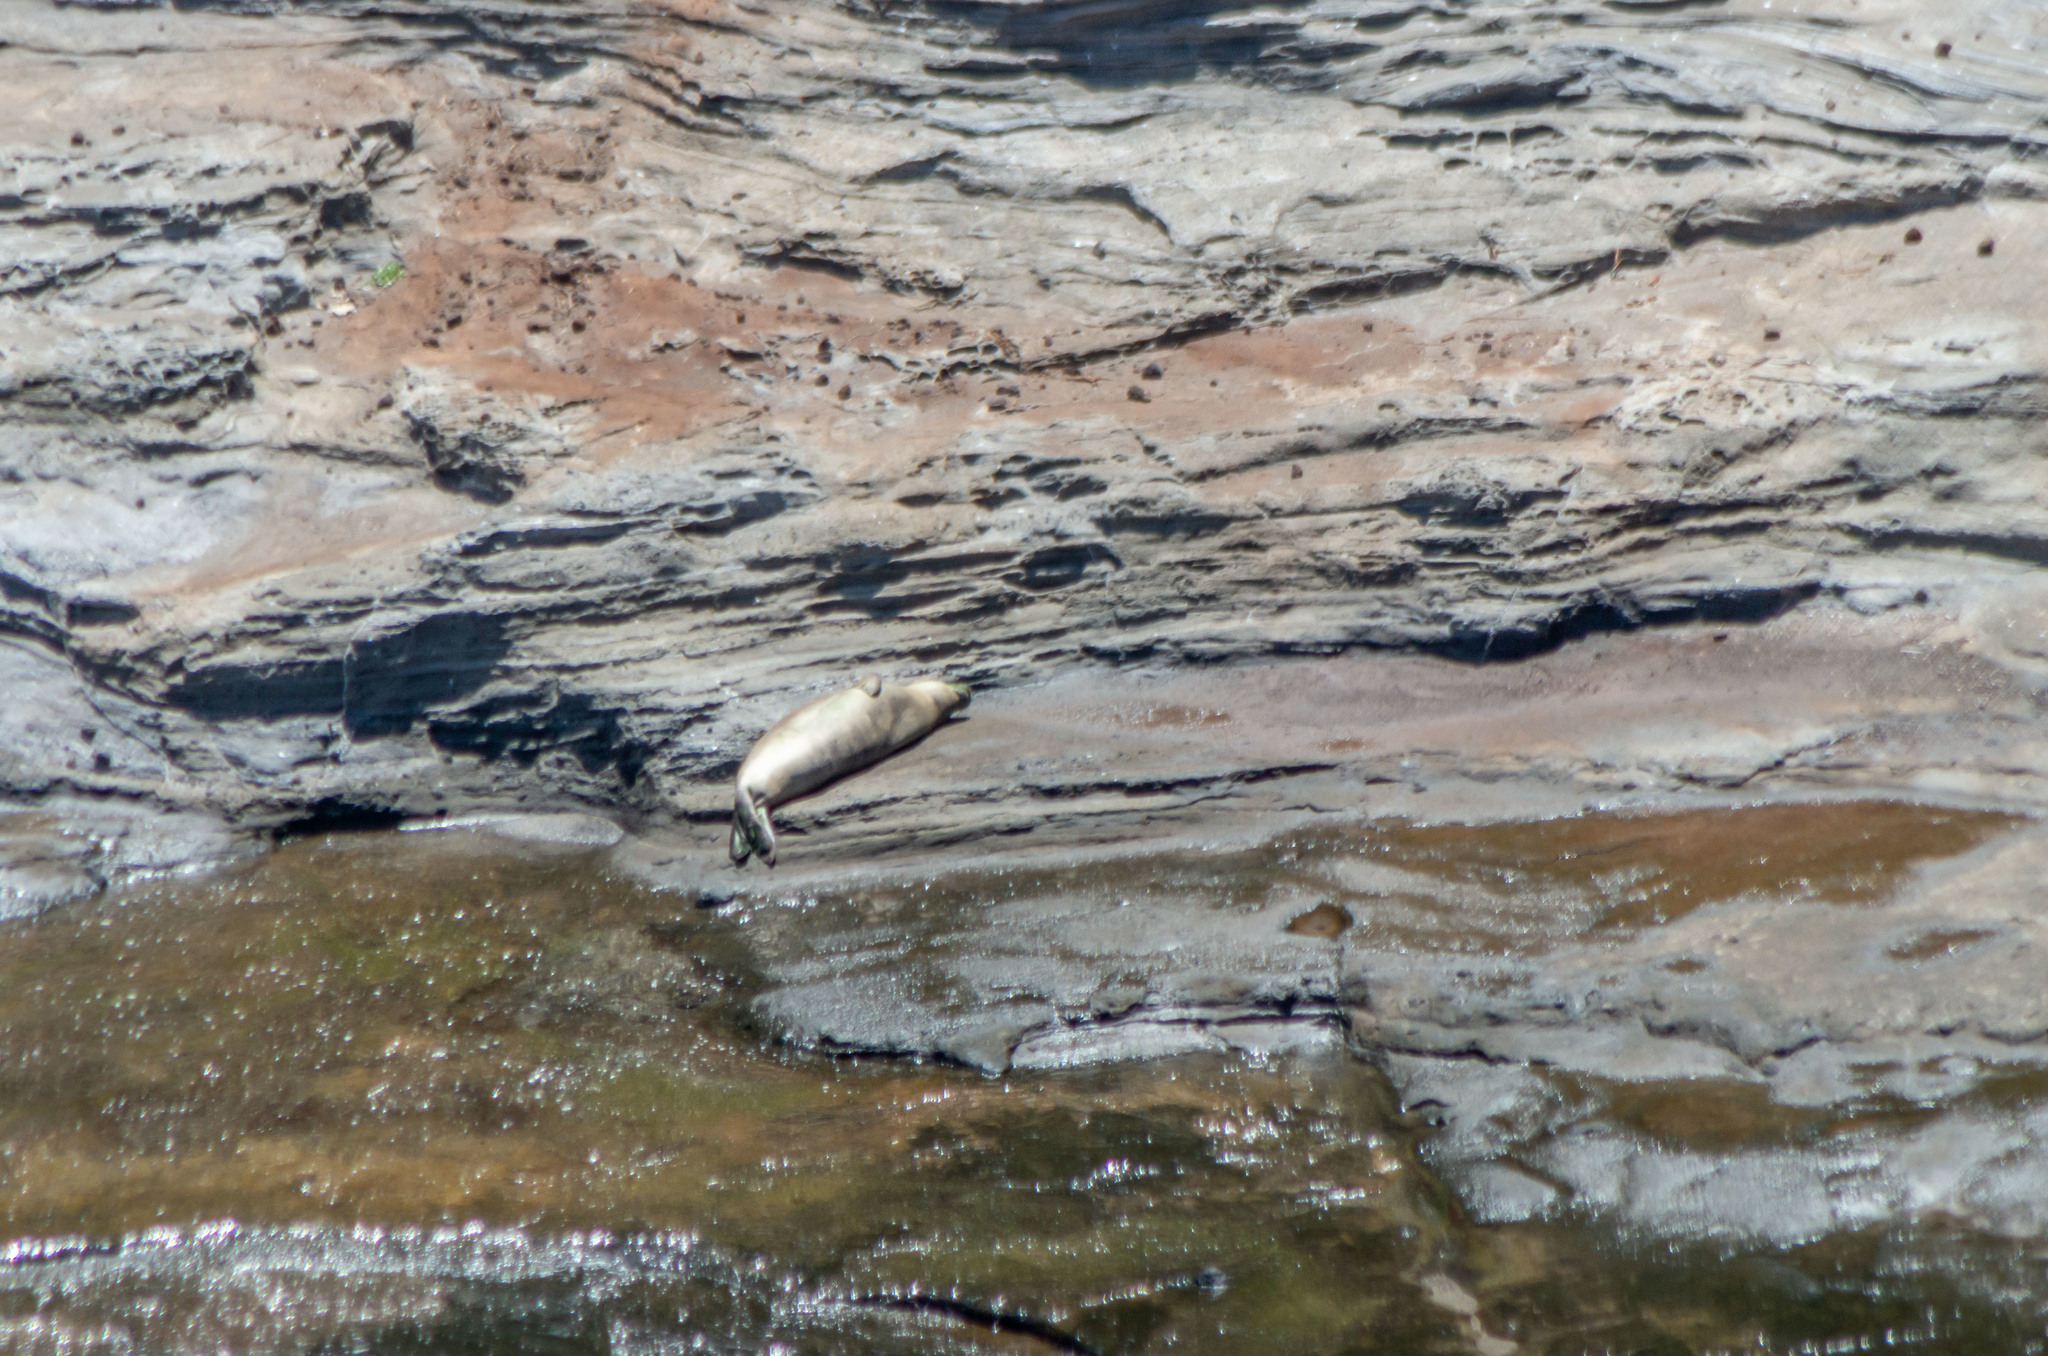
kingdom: Animalia
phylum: Chordata
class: Mammalia
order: Carnivora
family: Phocidae
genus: Neomonachus
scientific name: Neomonachus schauinslandi
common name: Hawaiian monk seal
